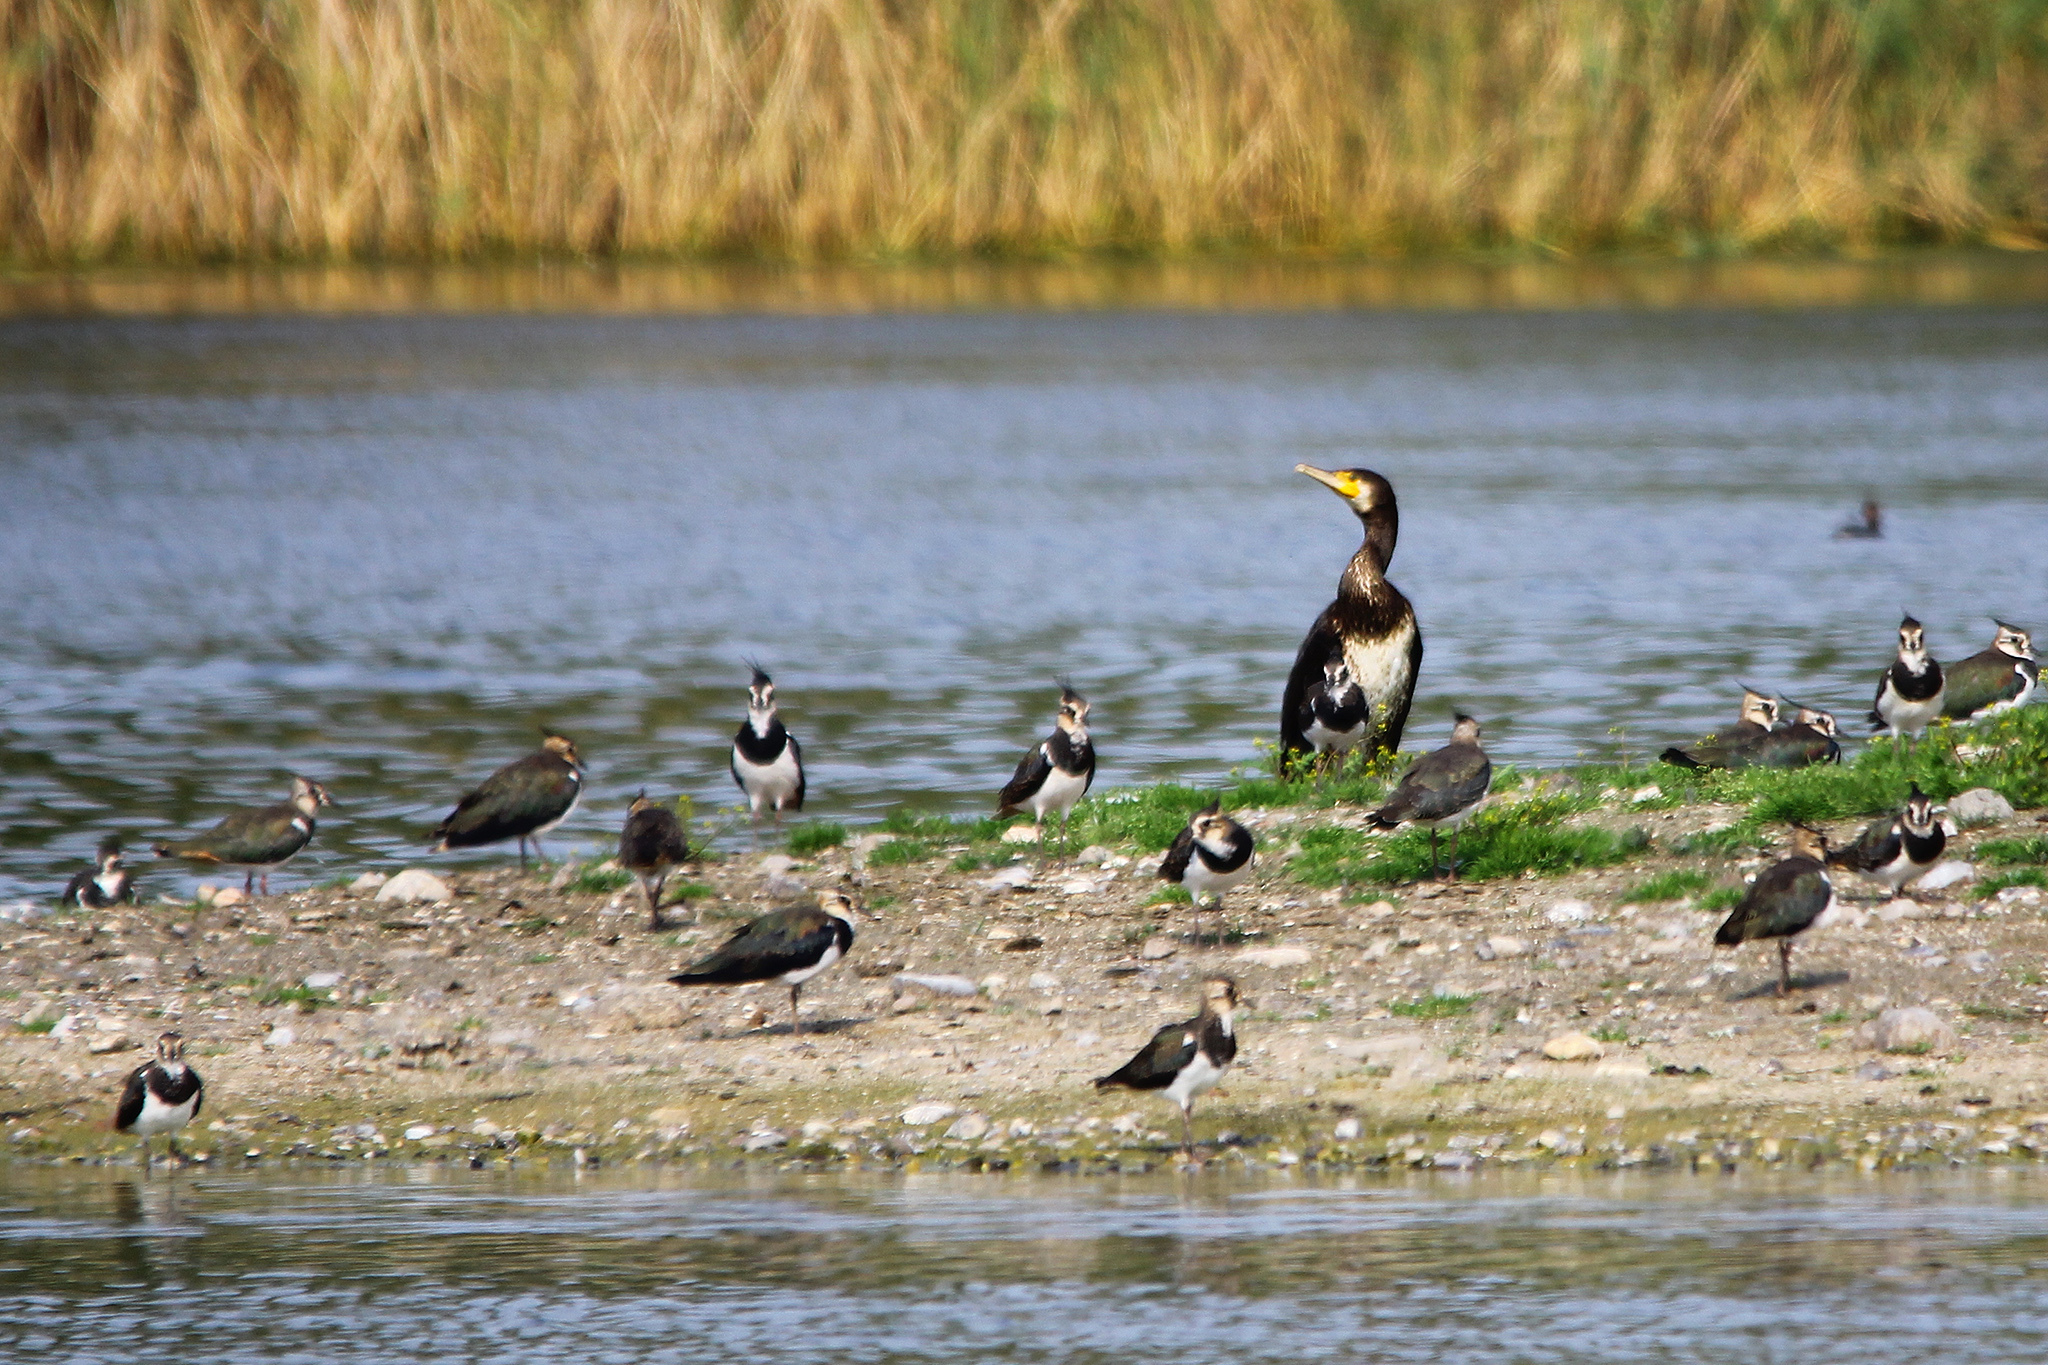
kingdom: Animalia
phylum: Chordata
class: Aves
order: Suliformes
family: Phalacrocoracidae
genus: Phalacrocorax
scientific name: Phalacrocorax carbo
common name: Great cormorant
